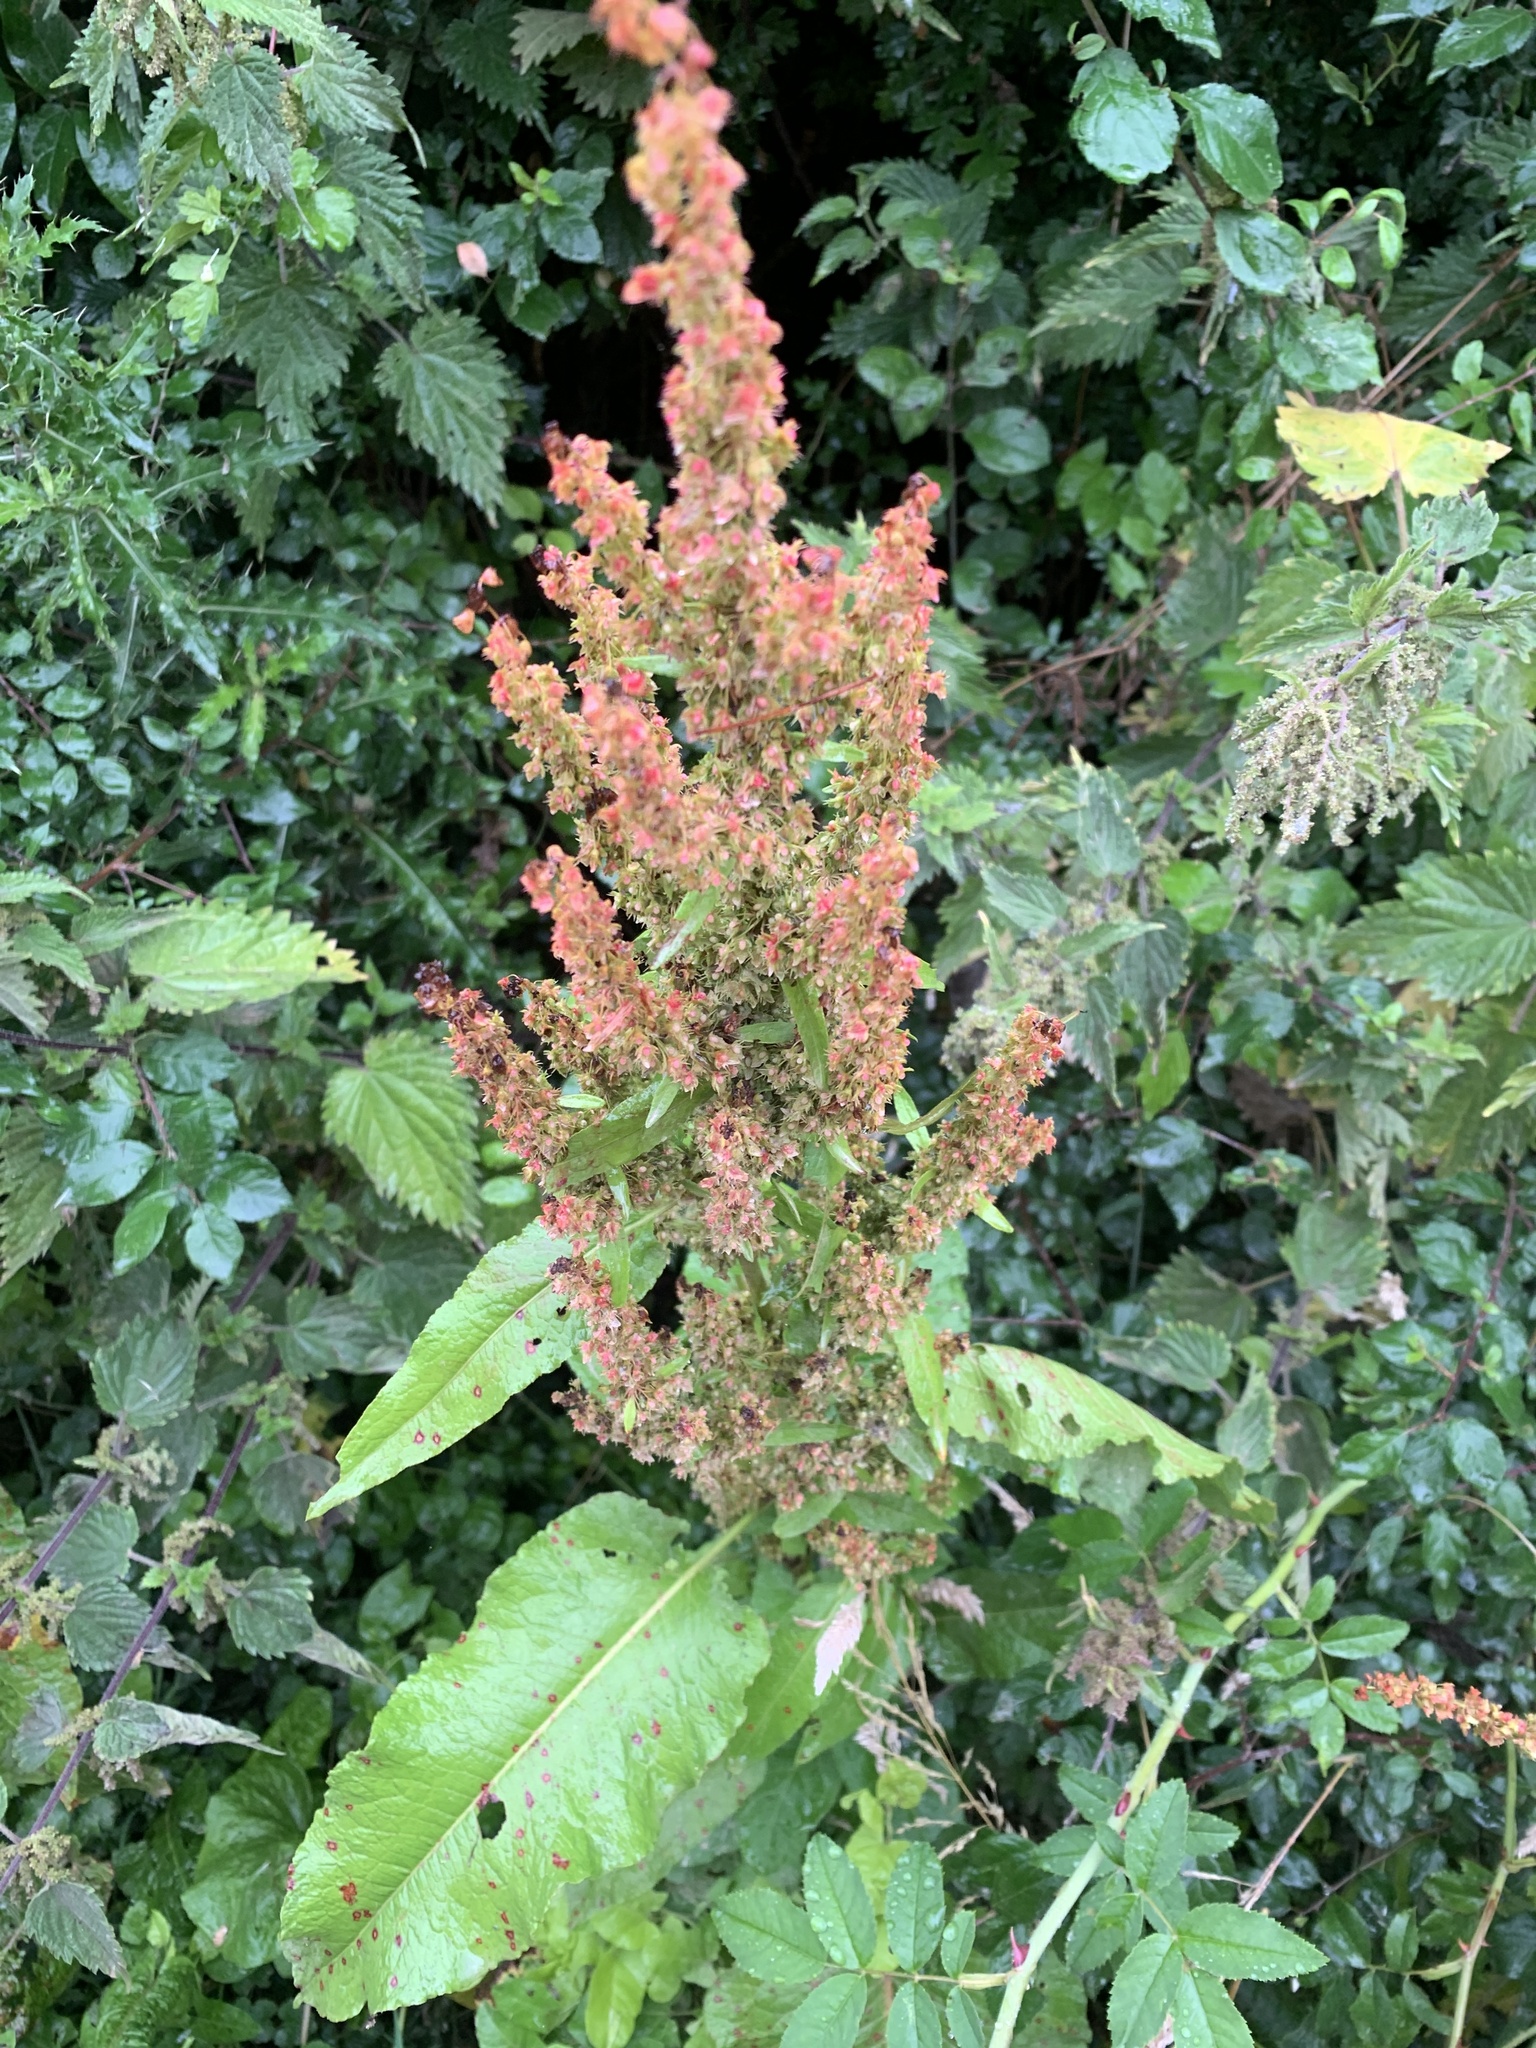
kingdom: Plantae
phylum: Tracheophyta
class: Magnoliopsida
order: Caryophyllales
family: Polygonaceae
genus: Rumex
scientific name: Rumex obtusifolius
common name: Bitter dock
